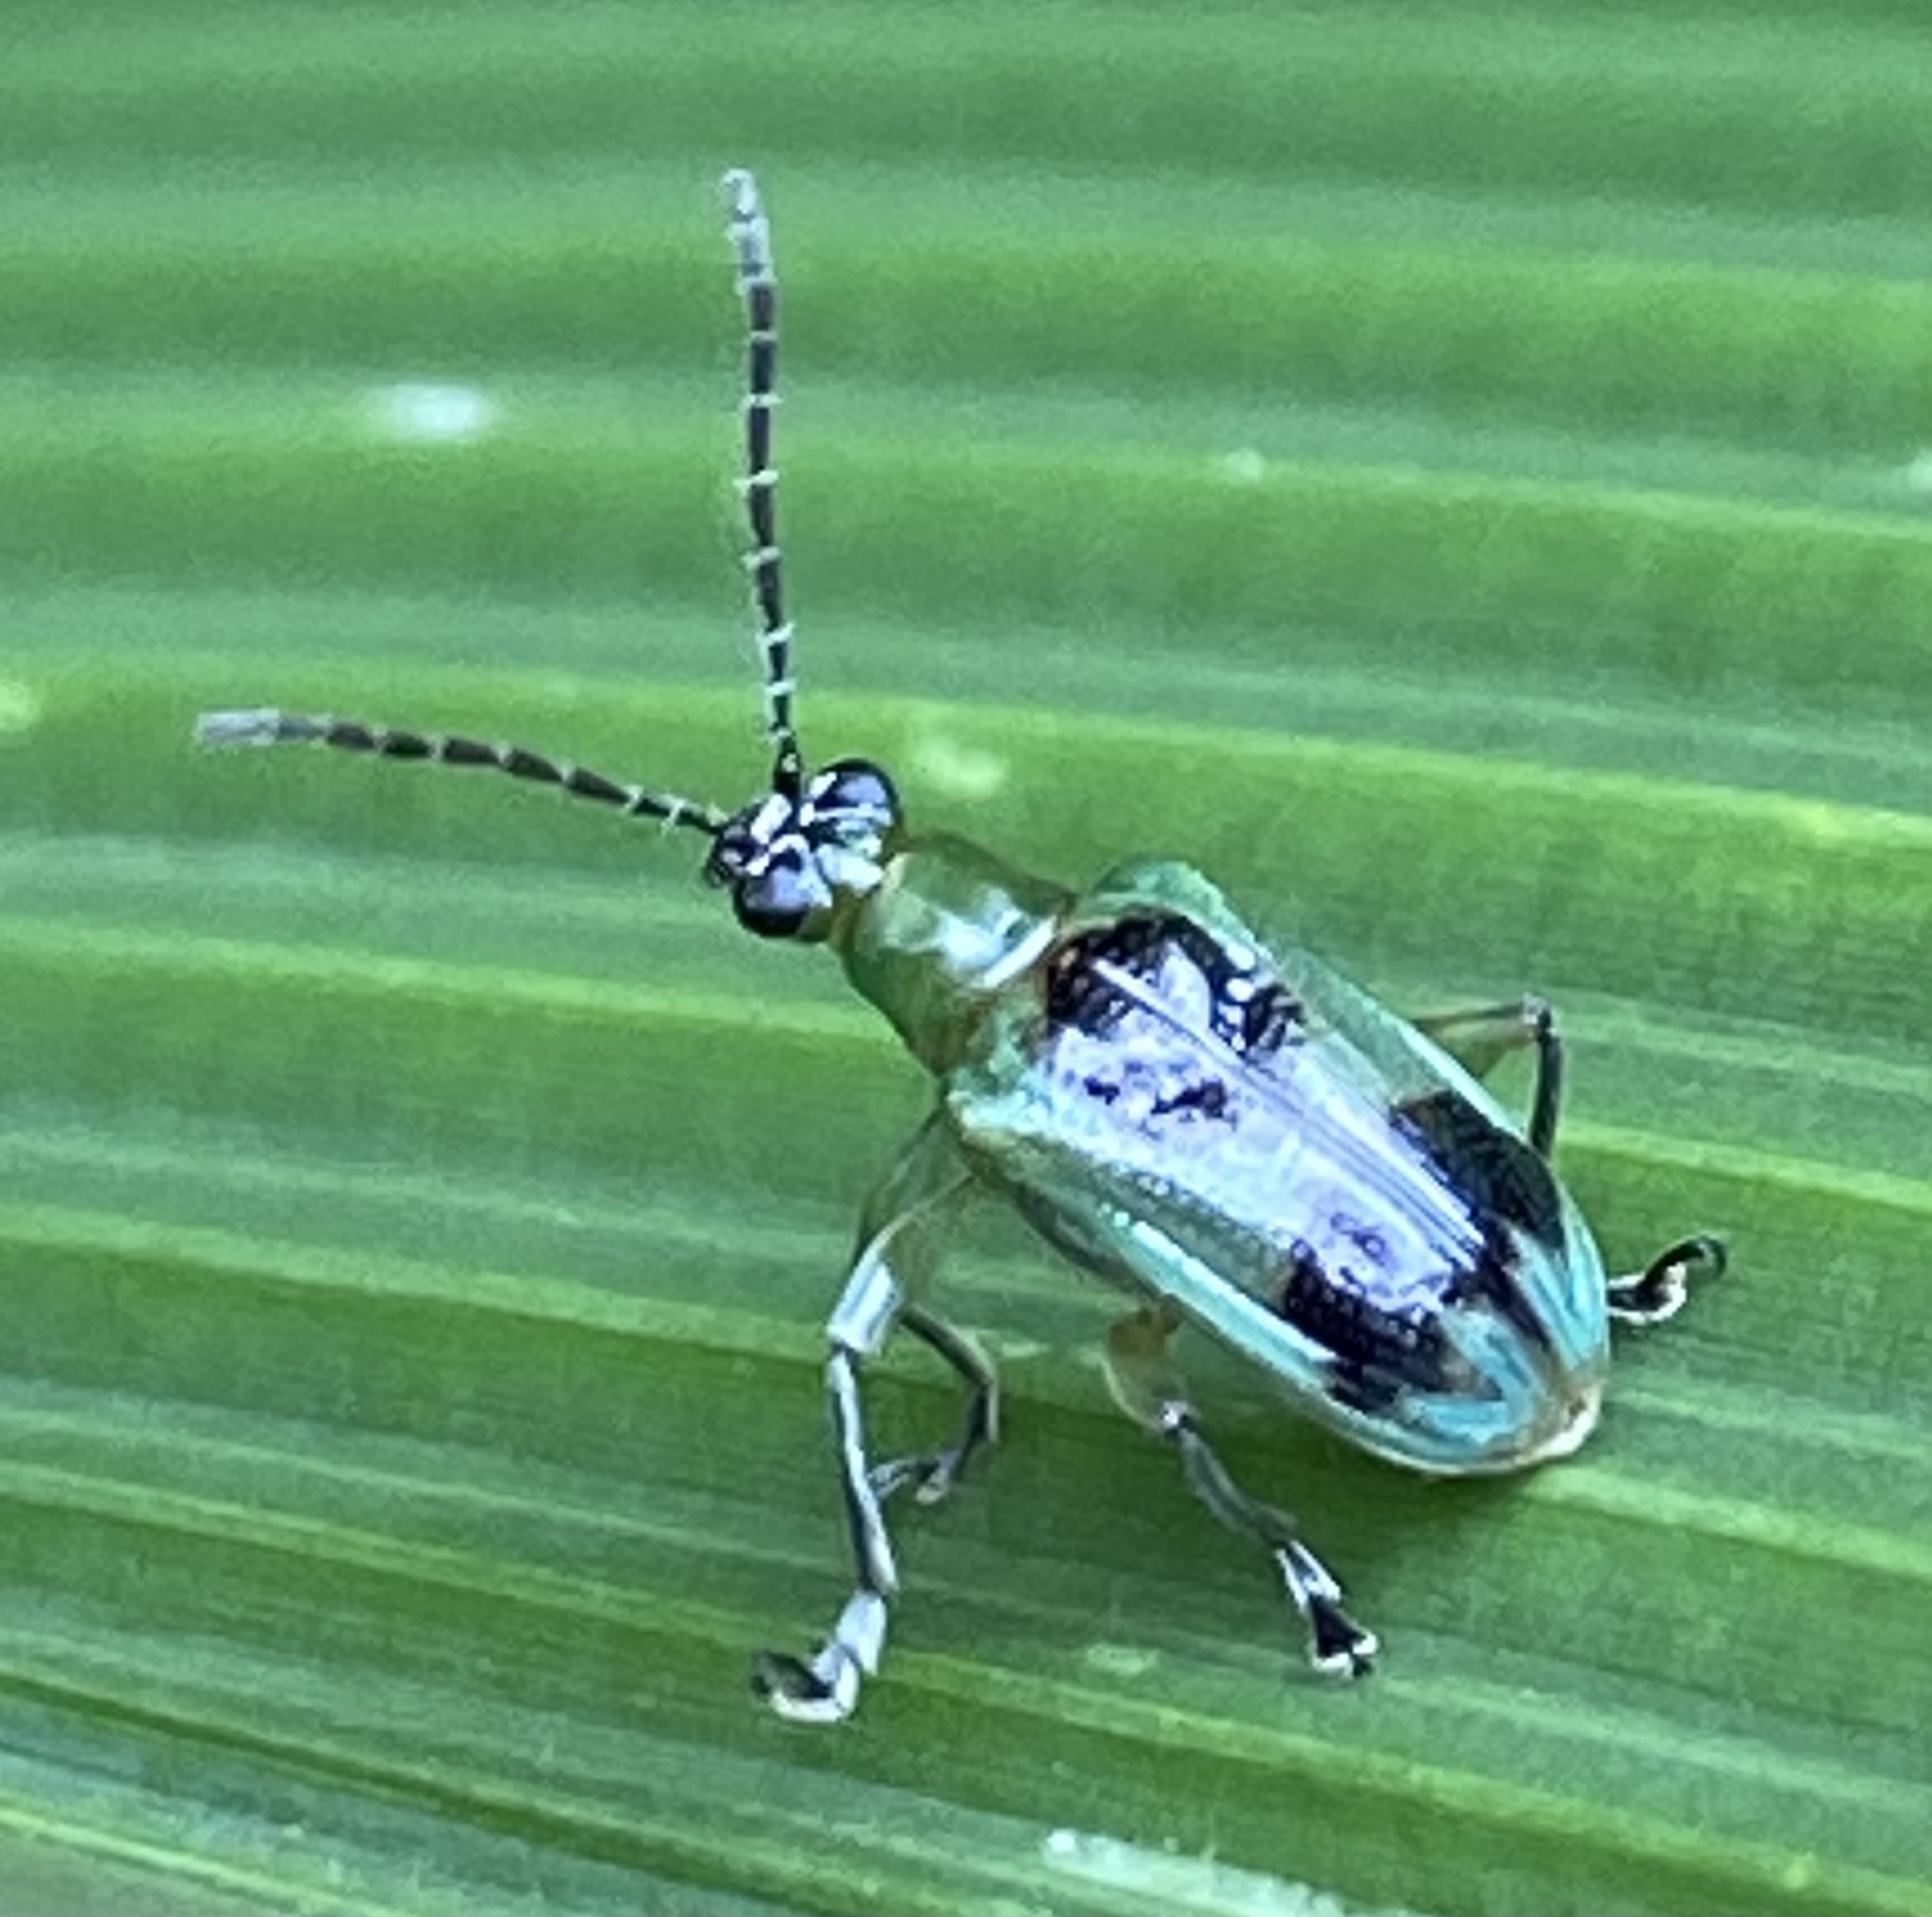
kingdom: Animalia
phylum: Arthropoda
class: Insecta
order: Coleoptera
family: Chrysomelidae
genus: Neolema
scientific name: Neolema
